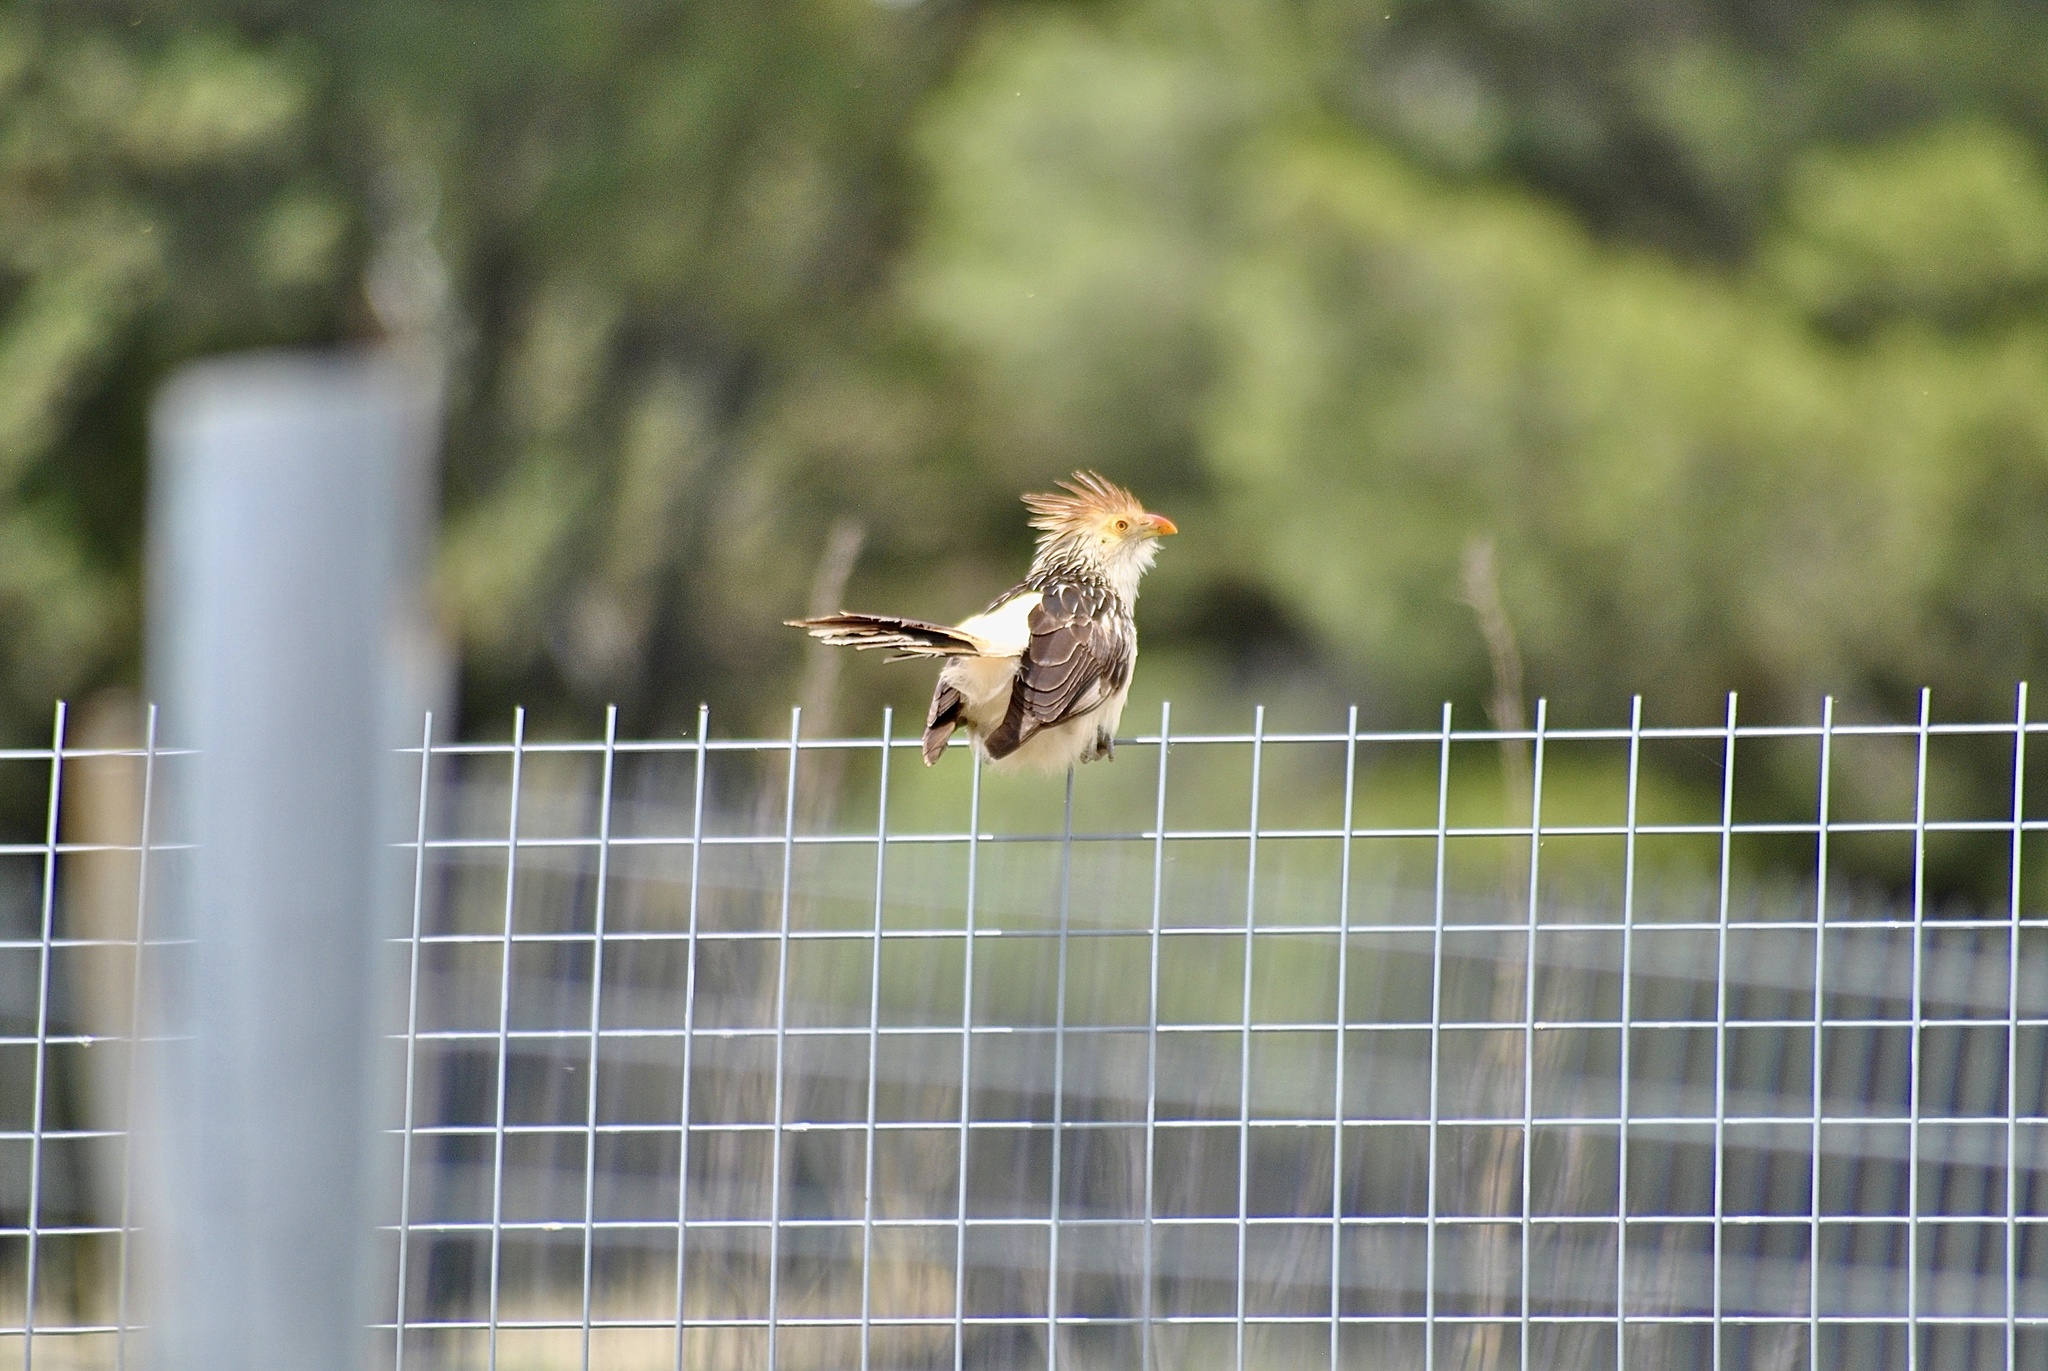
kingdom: Animalia
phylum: Chordata
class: Aves
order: Cuculiformes
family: Cuculidae
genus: Guira
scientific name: Guira guira
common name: Guira cuckoo
